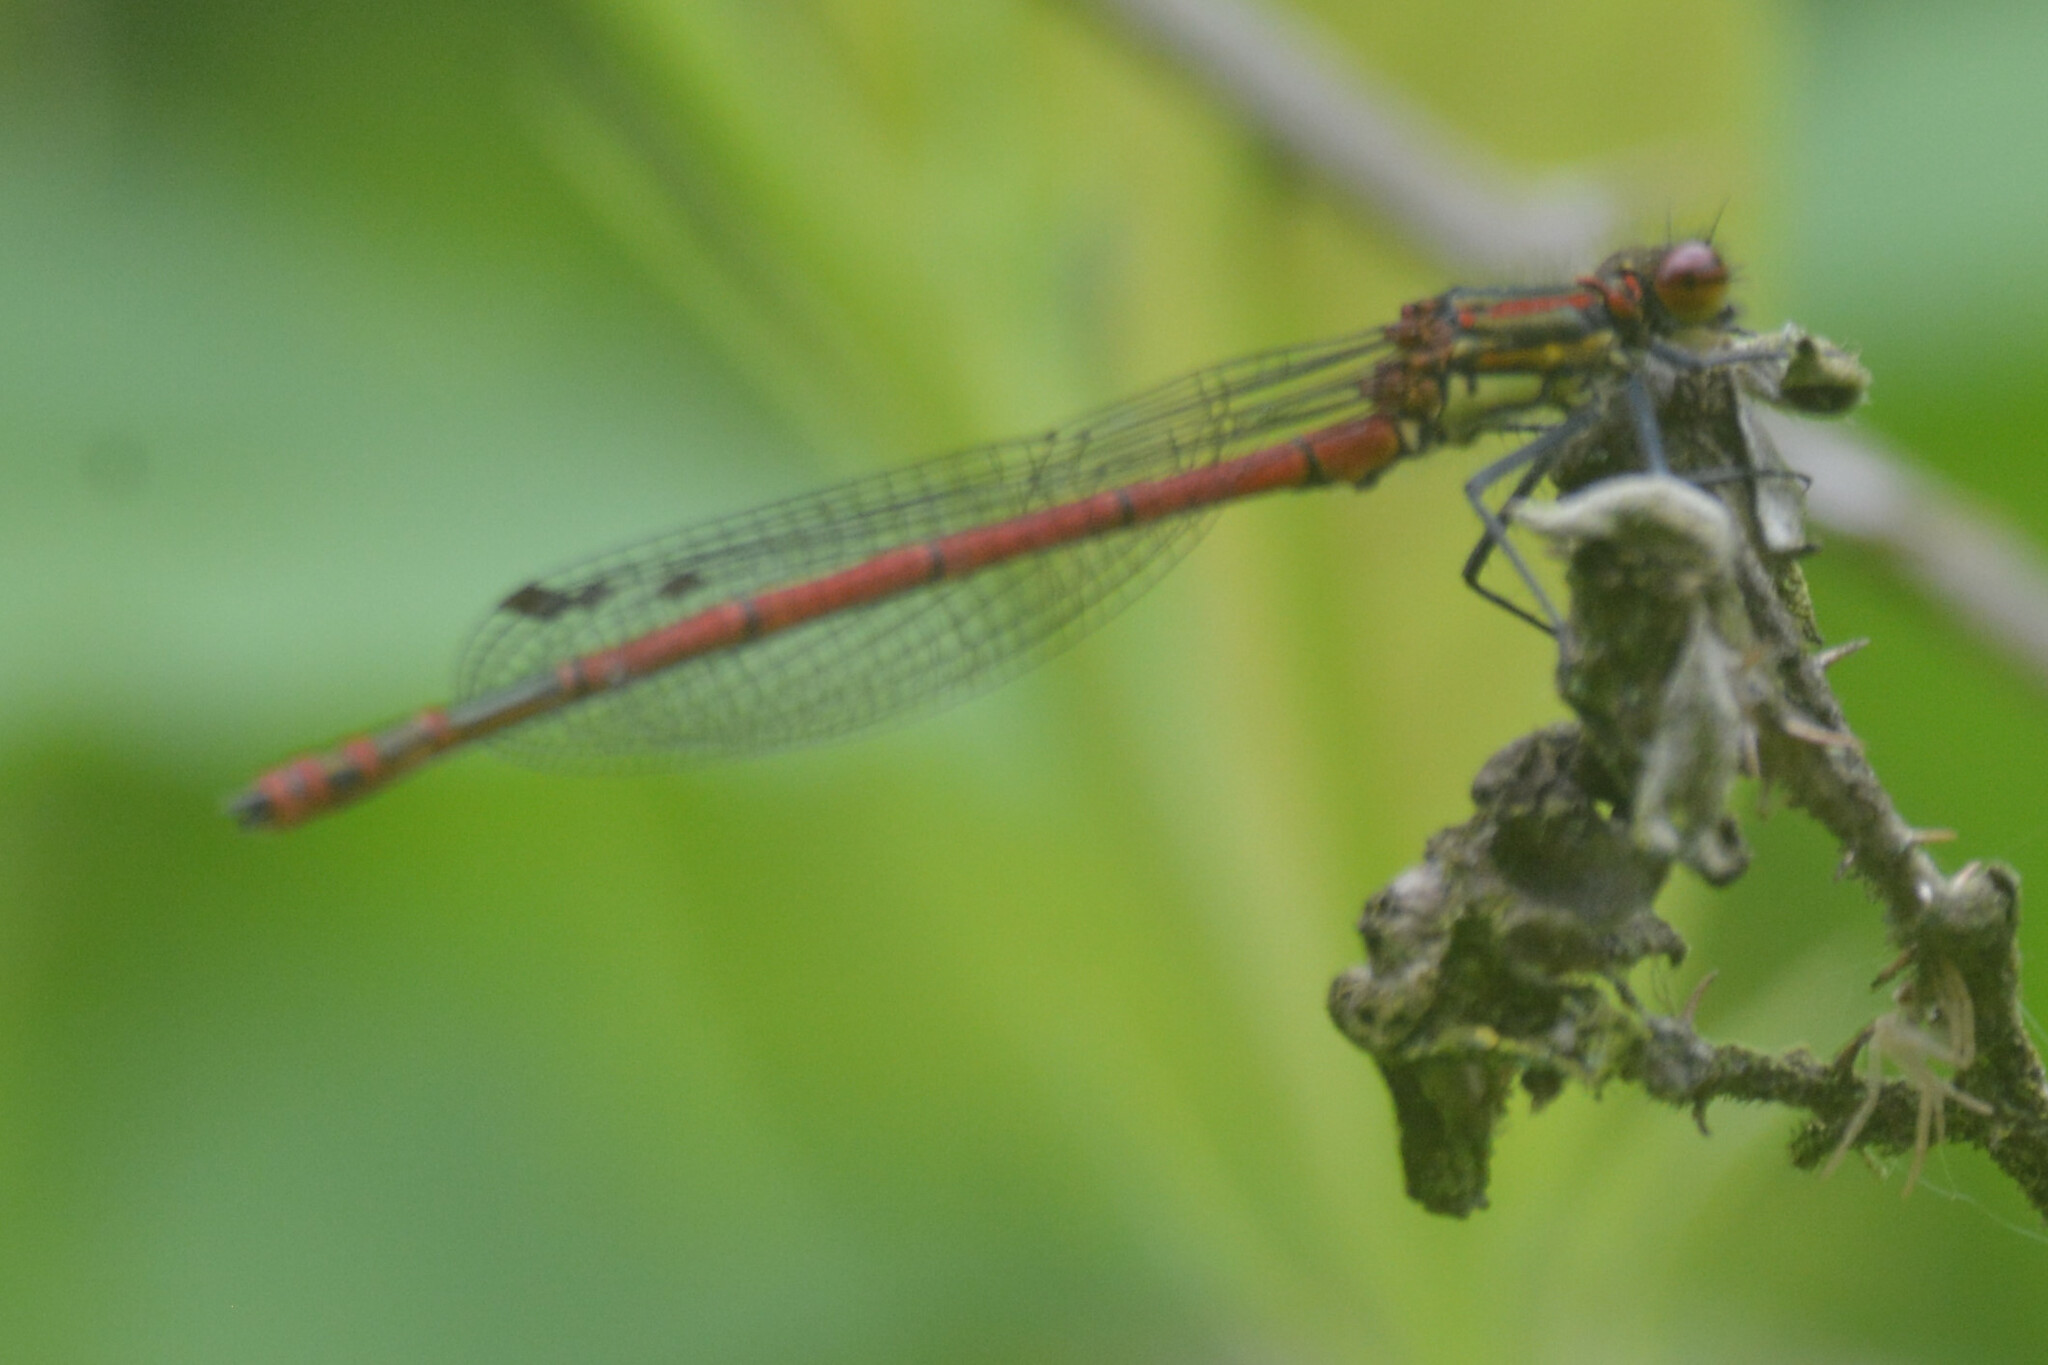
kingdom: Animalia
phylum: Arthropoda
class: Insecta
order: Odonata
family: Coenagrionidae
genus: Pyrrhosoma
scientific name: Pyrrhosoma nymphula
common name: Large red damsel
